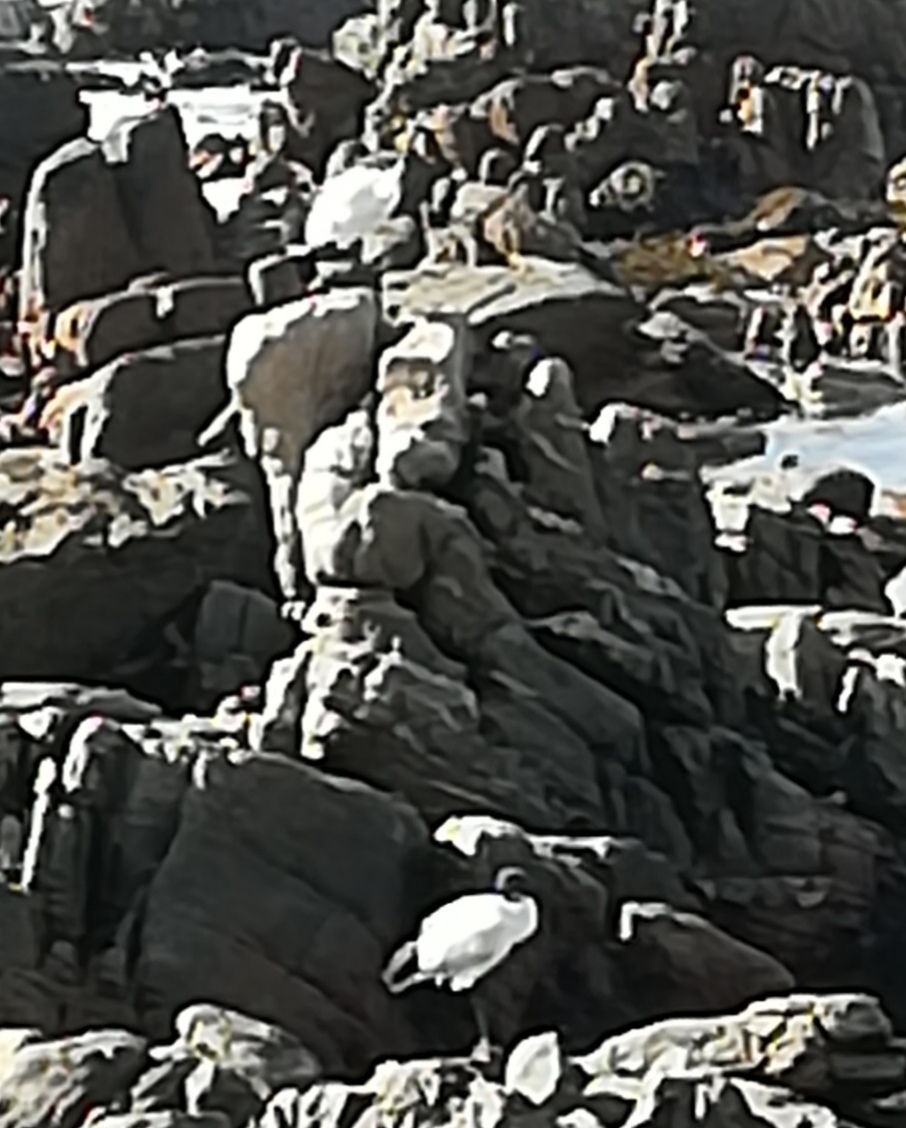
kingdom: Animalia
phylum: Chordata
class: Aves
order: Pelecaniformes
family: Threskiornithidae
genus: Threskiornis
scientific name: Threskiornis aethiopicus
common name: Sacred ibis
